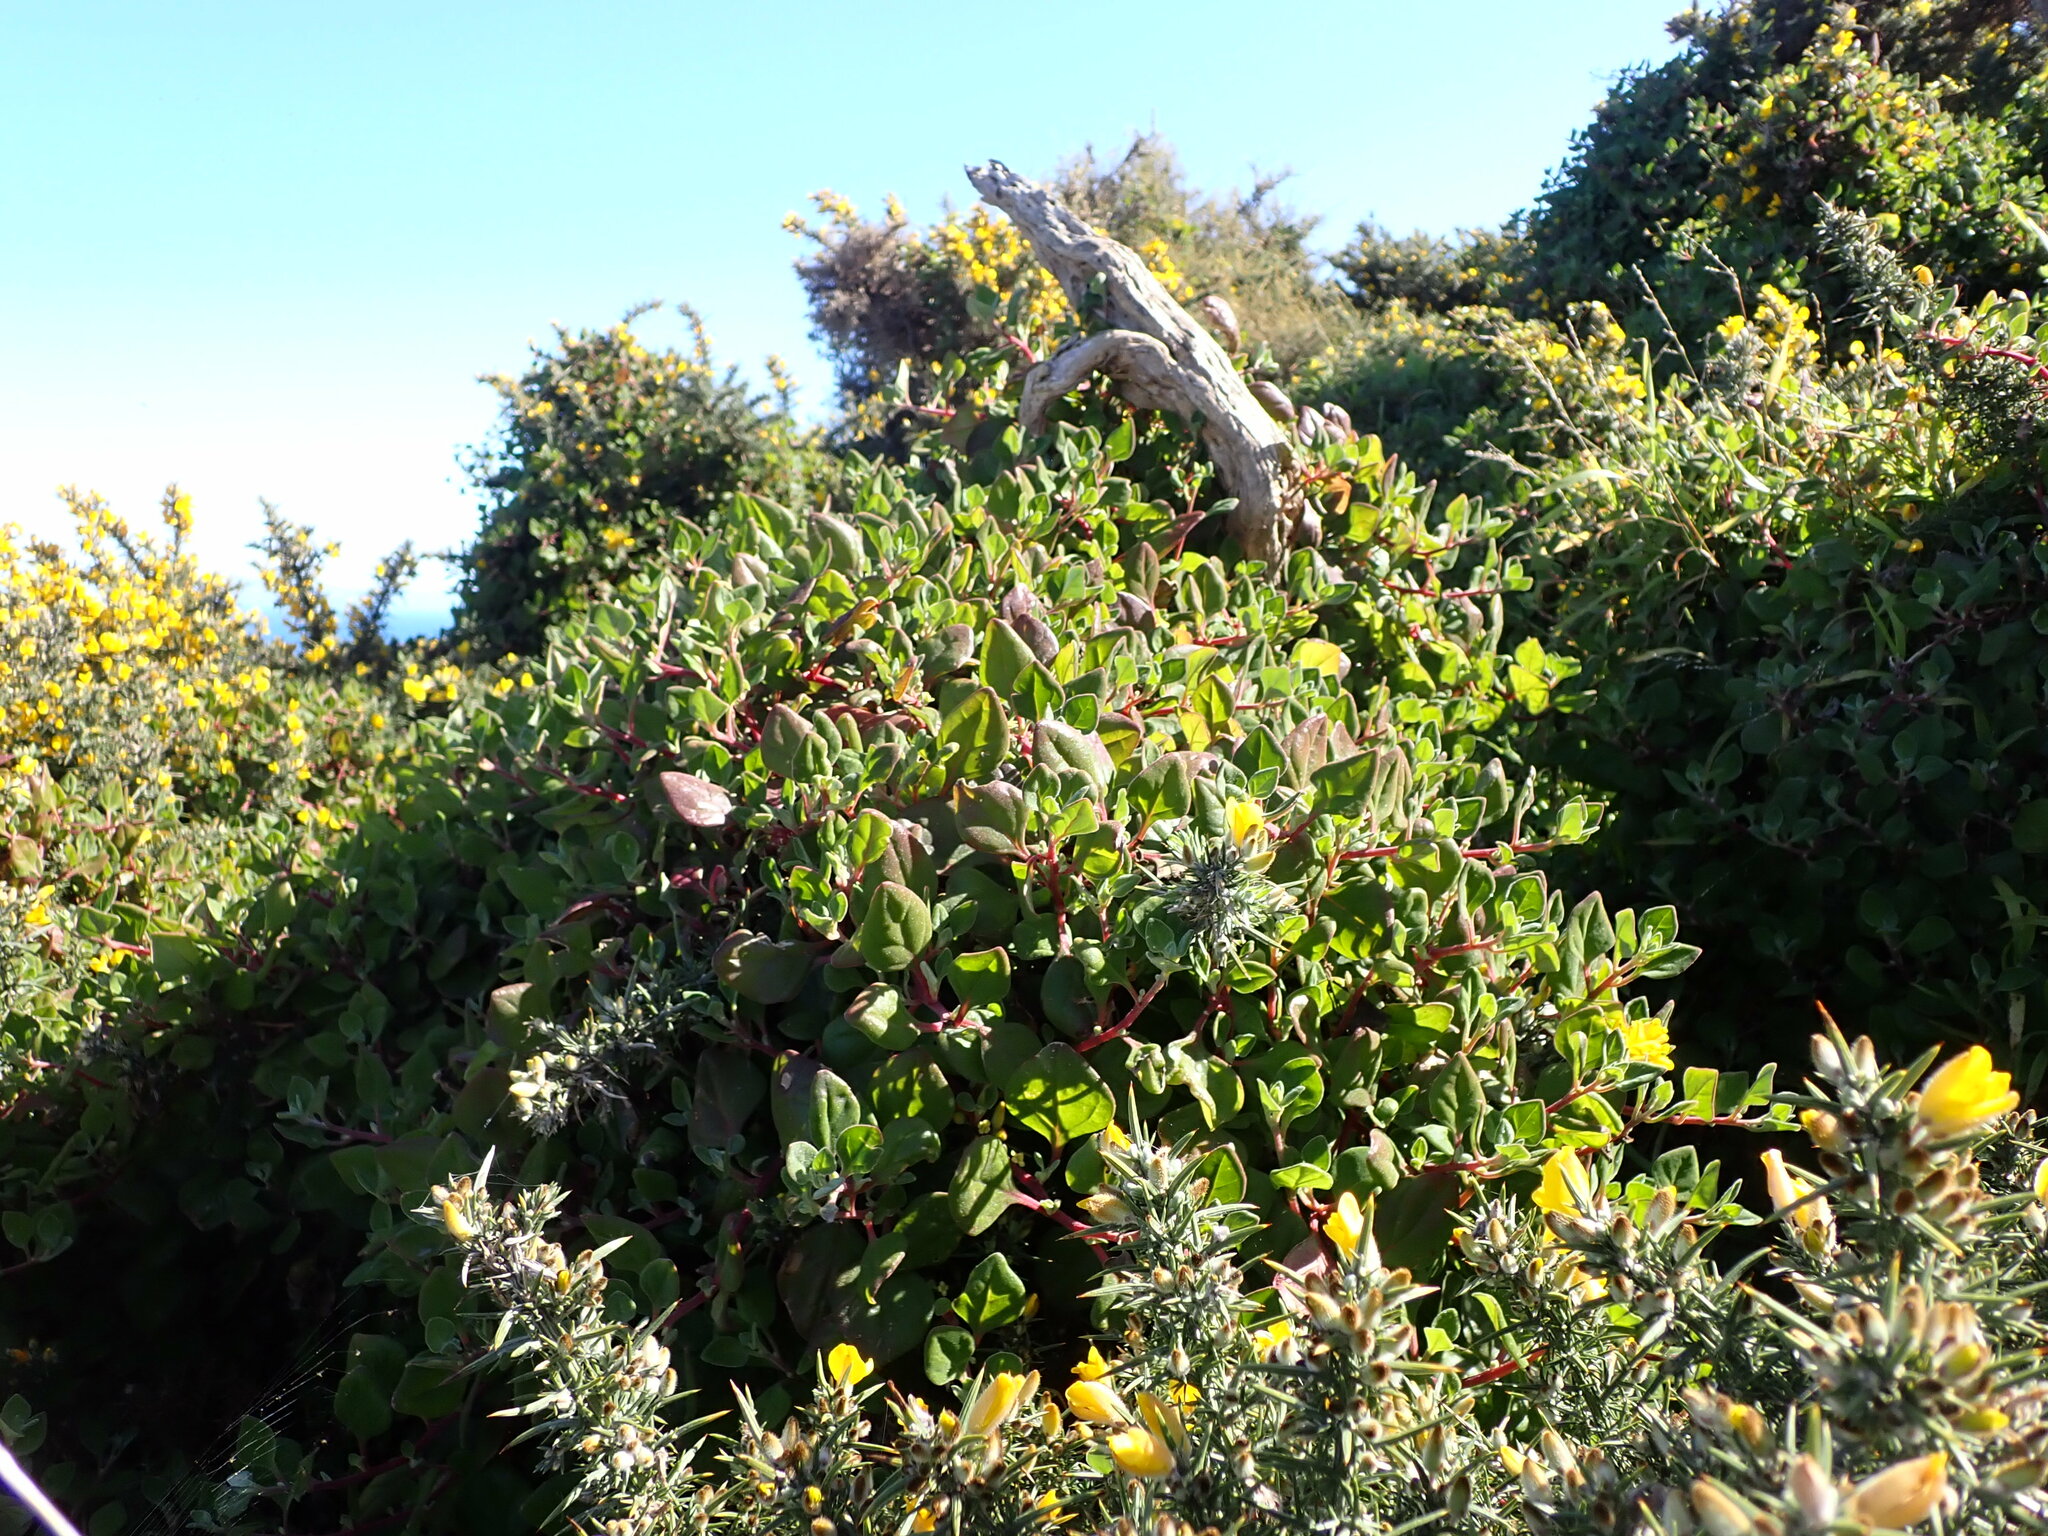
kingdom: Plantae
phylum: Tracheophyta
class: Magnoliopsida
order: Caryophyllales
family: Aizoaceae
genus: Tetragonia
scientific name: Tetragonia implexicoma
